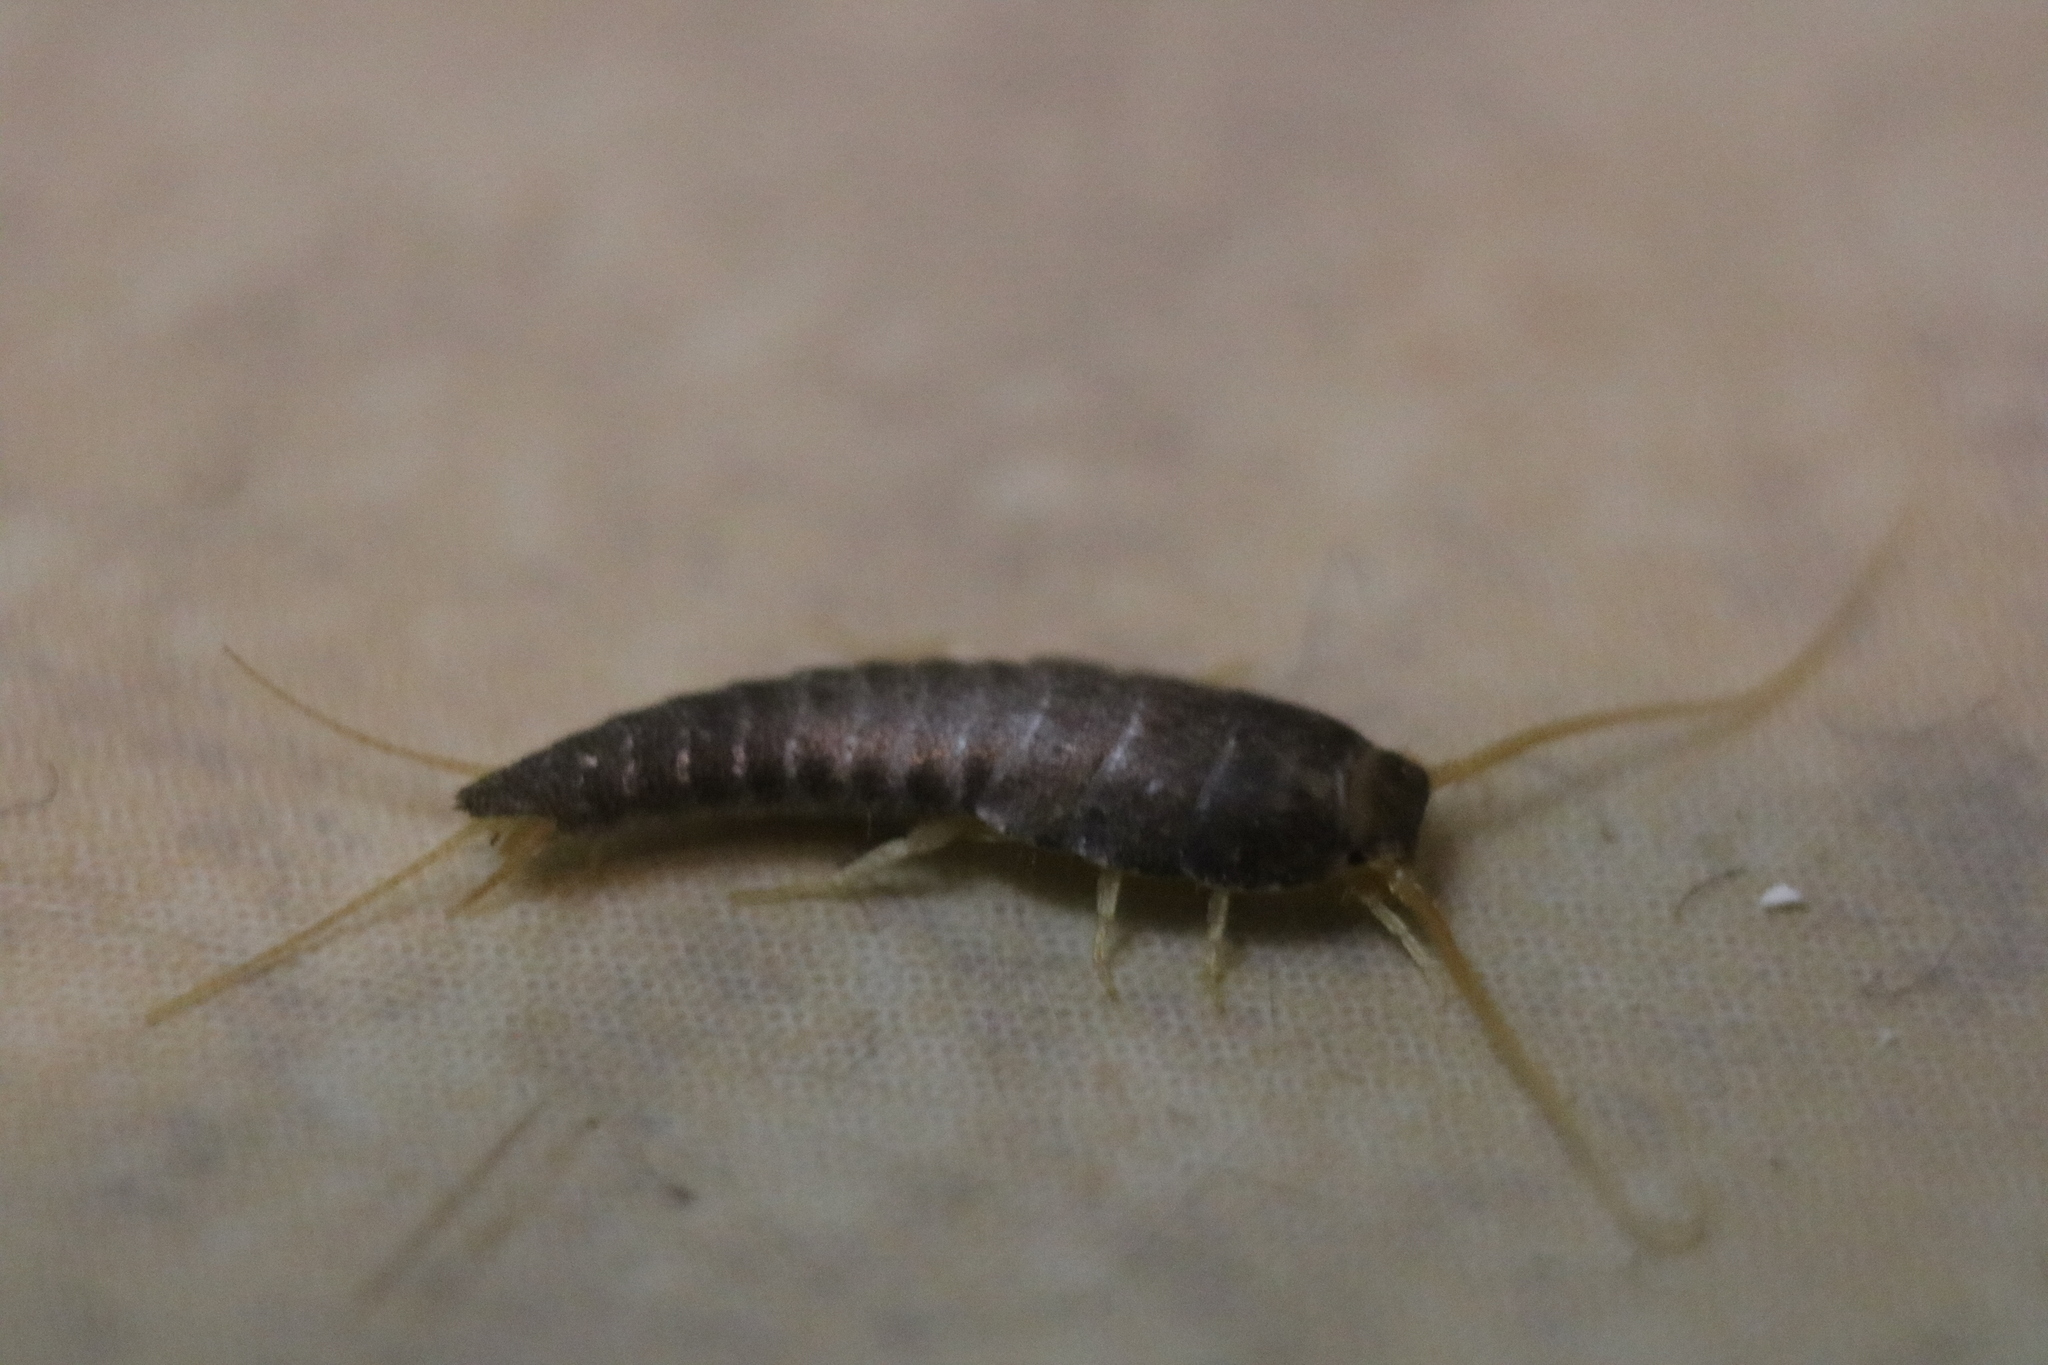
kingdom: Animalia
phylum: Arthropoda
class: Insecta
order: Zygentoma
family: Lepismatidae
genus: Lepisma
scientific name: Lepisma saccharinum
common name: Silverfish
